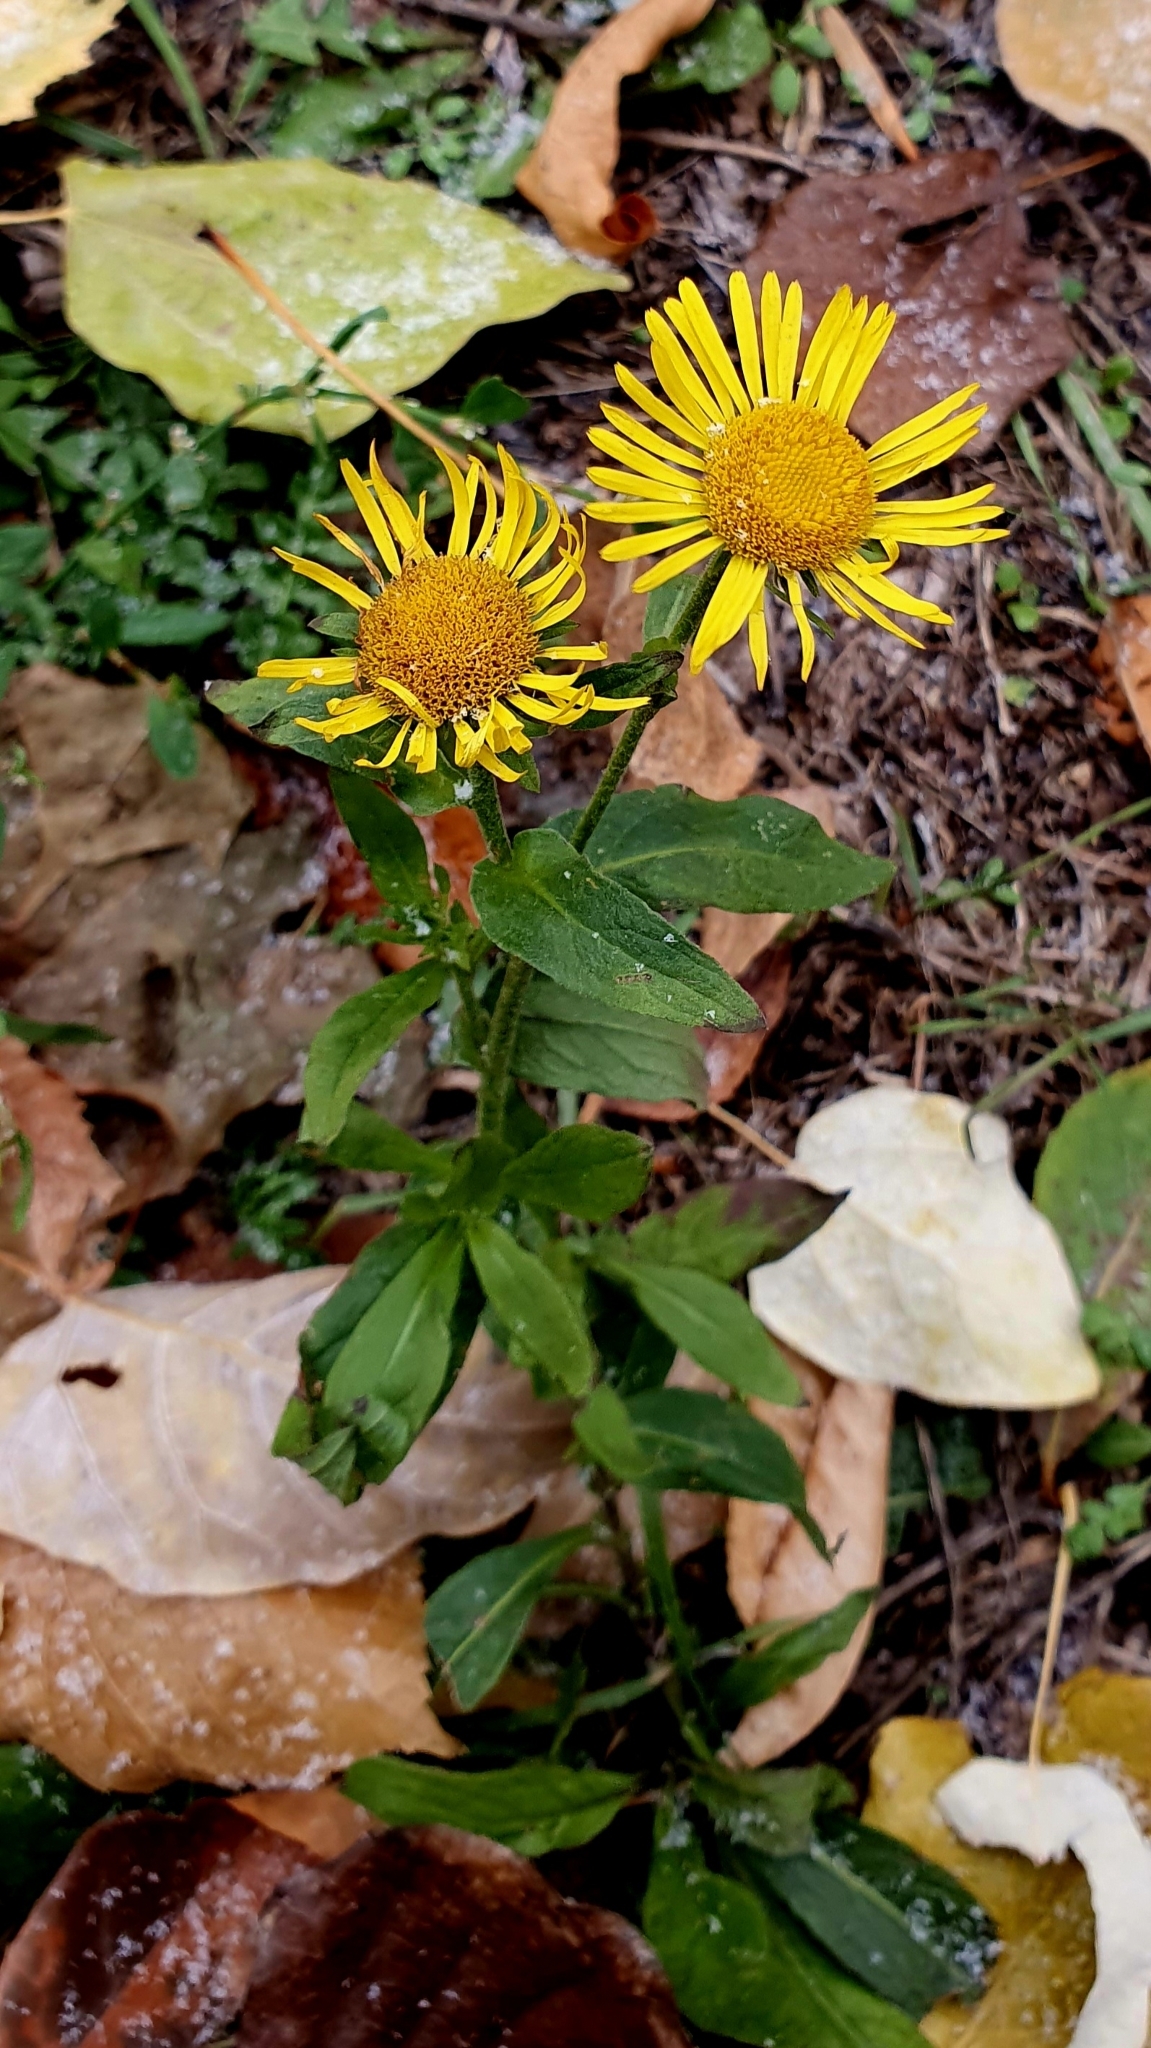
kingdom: Plantae
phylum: Tracheophyta
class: Magnoliopsida
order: Asterales
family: Asteraceae
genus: Pentanema
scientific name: Pentanema britannicum
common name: British elecampane
